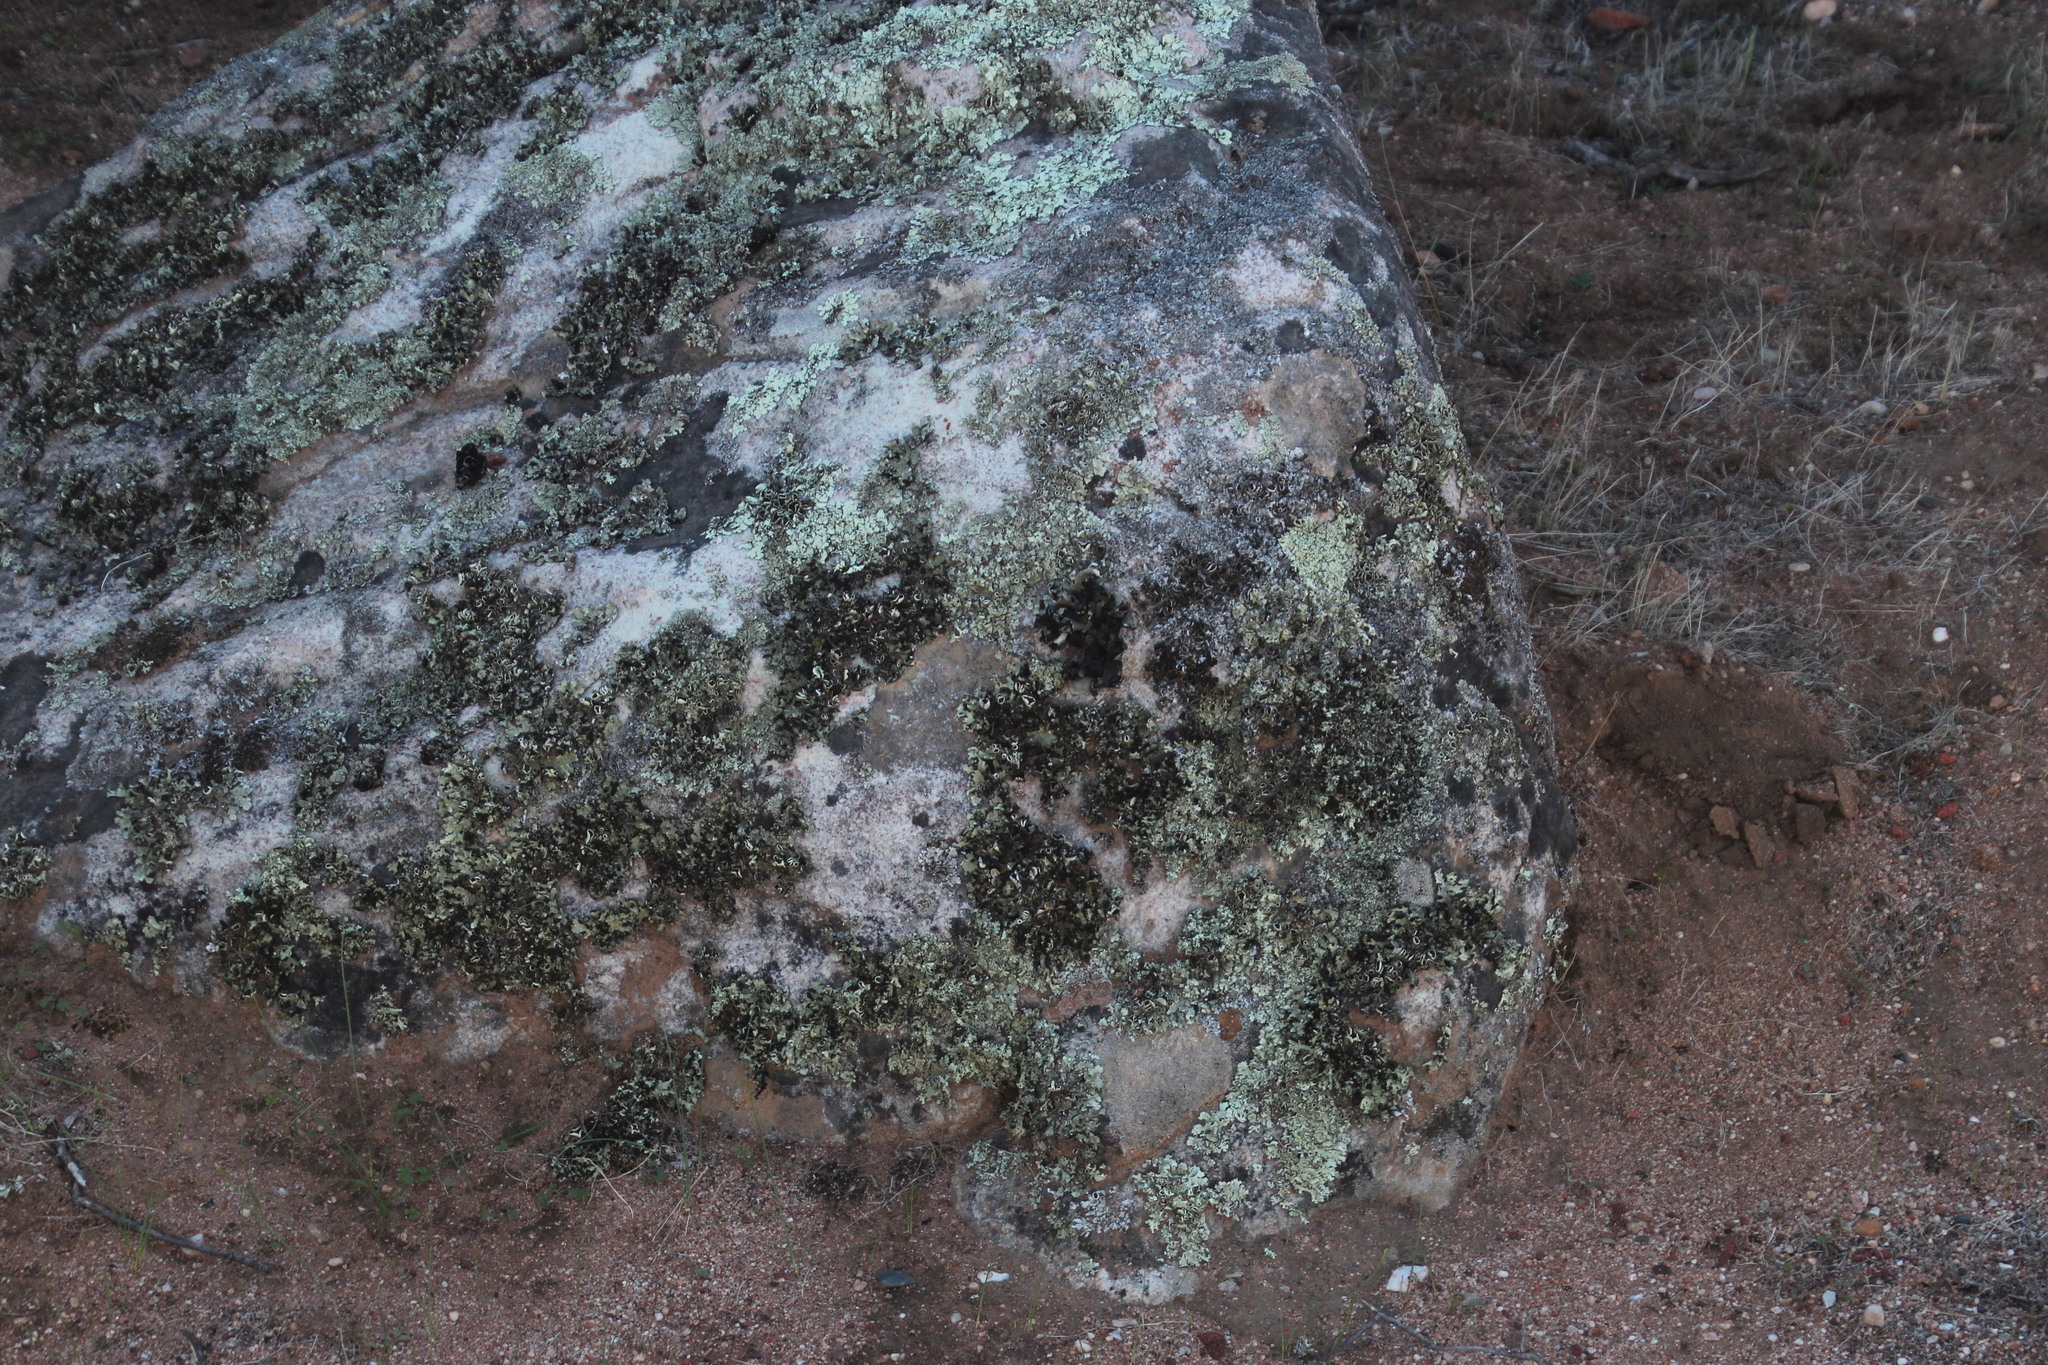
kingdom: Fungi
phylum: Ascomycota
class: Lecanoromycetes
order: Lecanorales
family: Parmeliaceae
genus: Xanthoparmelia
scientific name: Xanthoparmelia hottentotta
